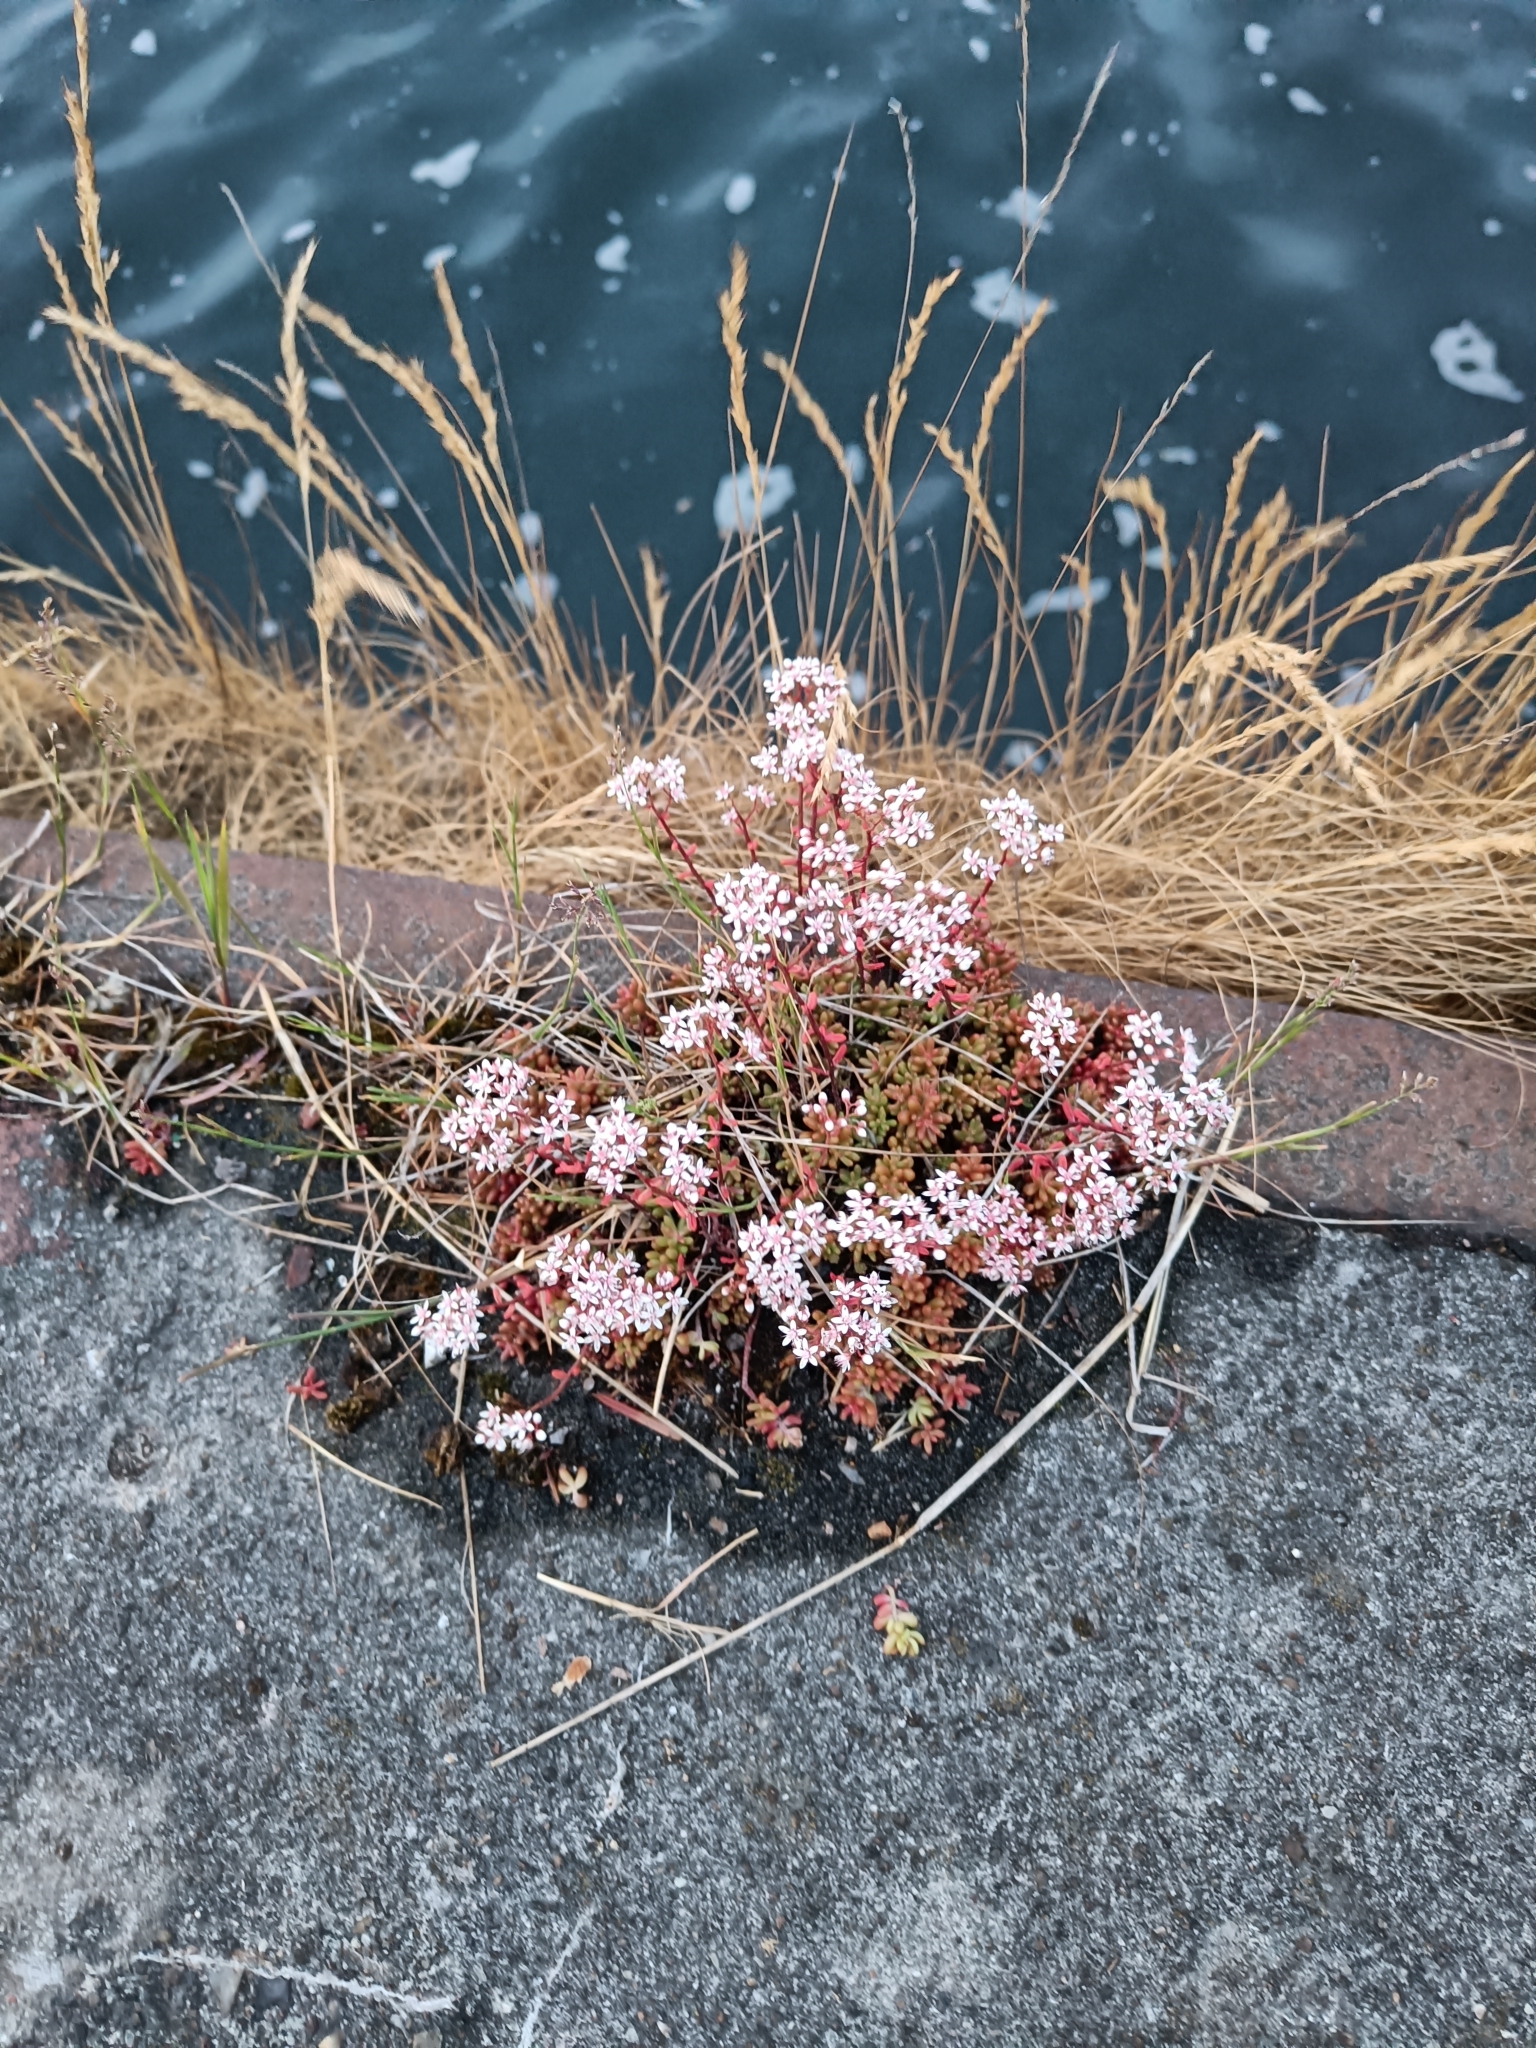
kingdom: Plantae
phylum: Tracheophyta
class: Magnoliopsida
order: Saxifragales
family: Crassulaceae
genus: Sedum
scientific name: Sedum album
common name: White stonecrop
